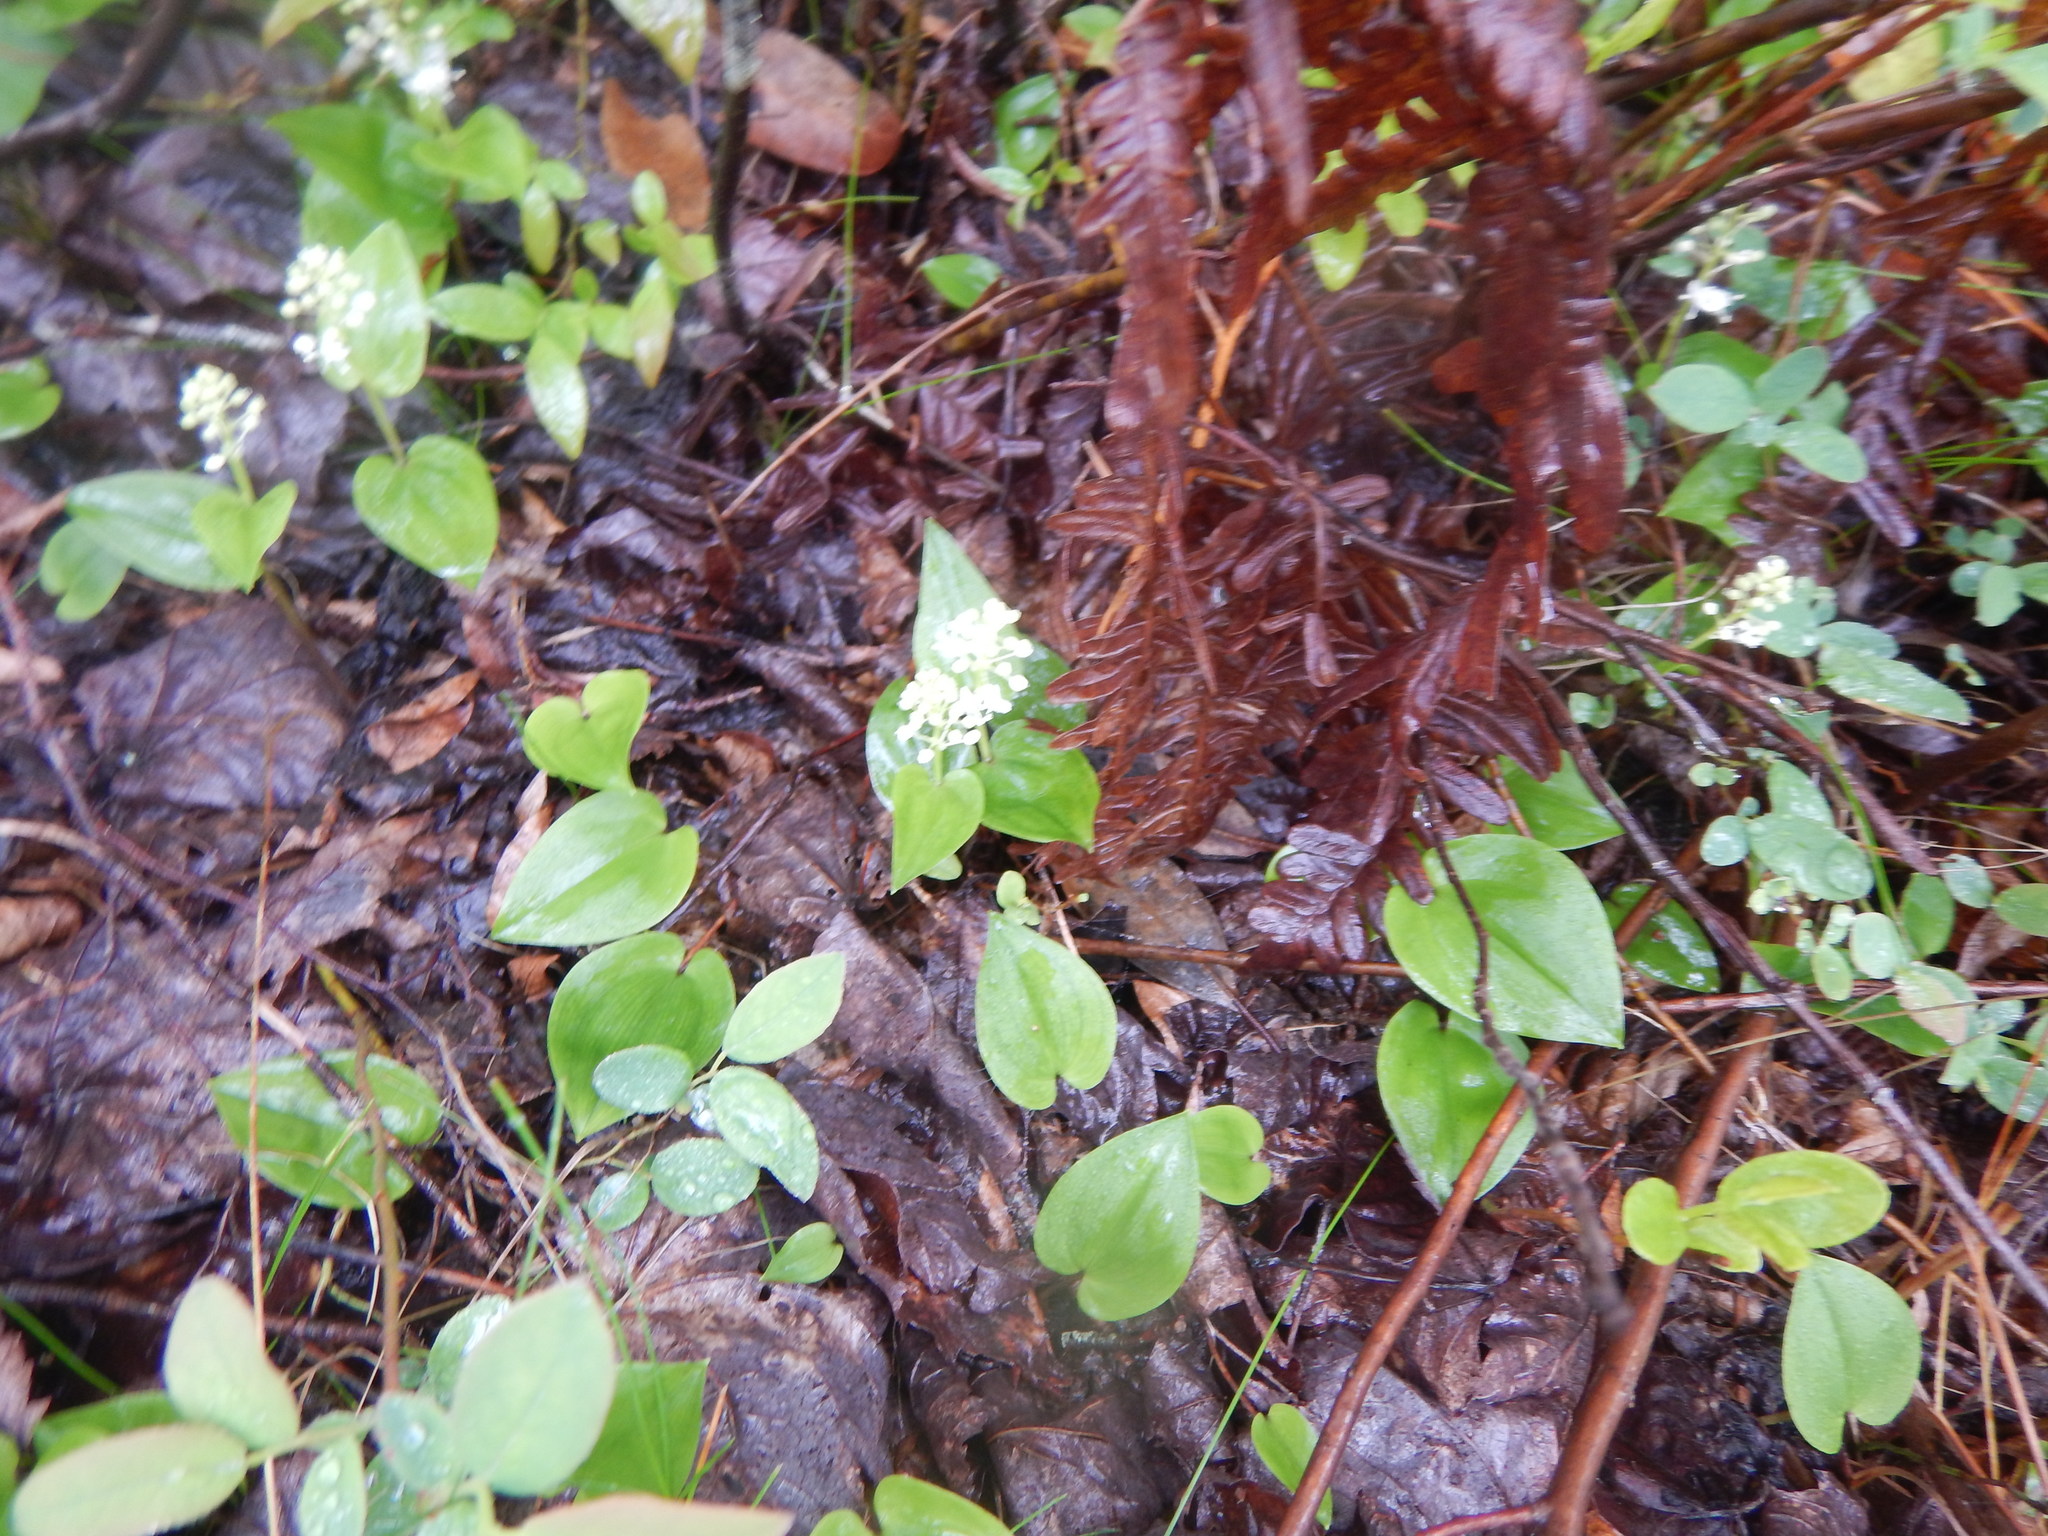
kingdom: Plantae
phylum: Tracheophyta
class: Liliopsida
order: Asparagales
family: Asparagaceae
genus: Maianthemum
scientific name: Maianthemum canadense
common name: False lily-of-the-valley
